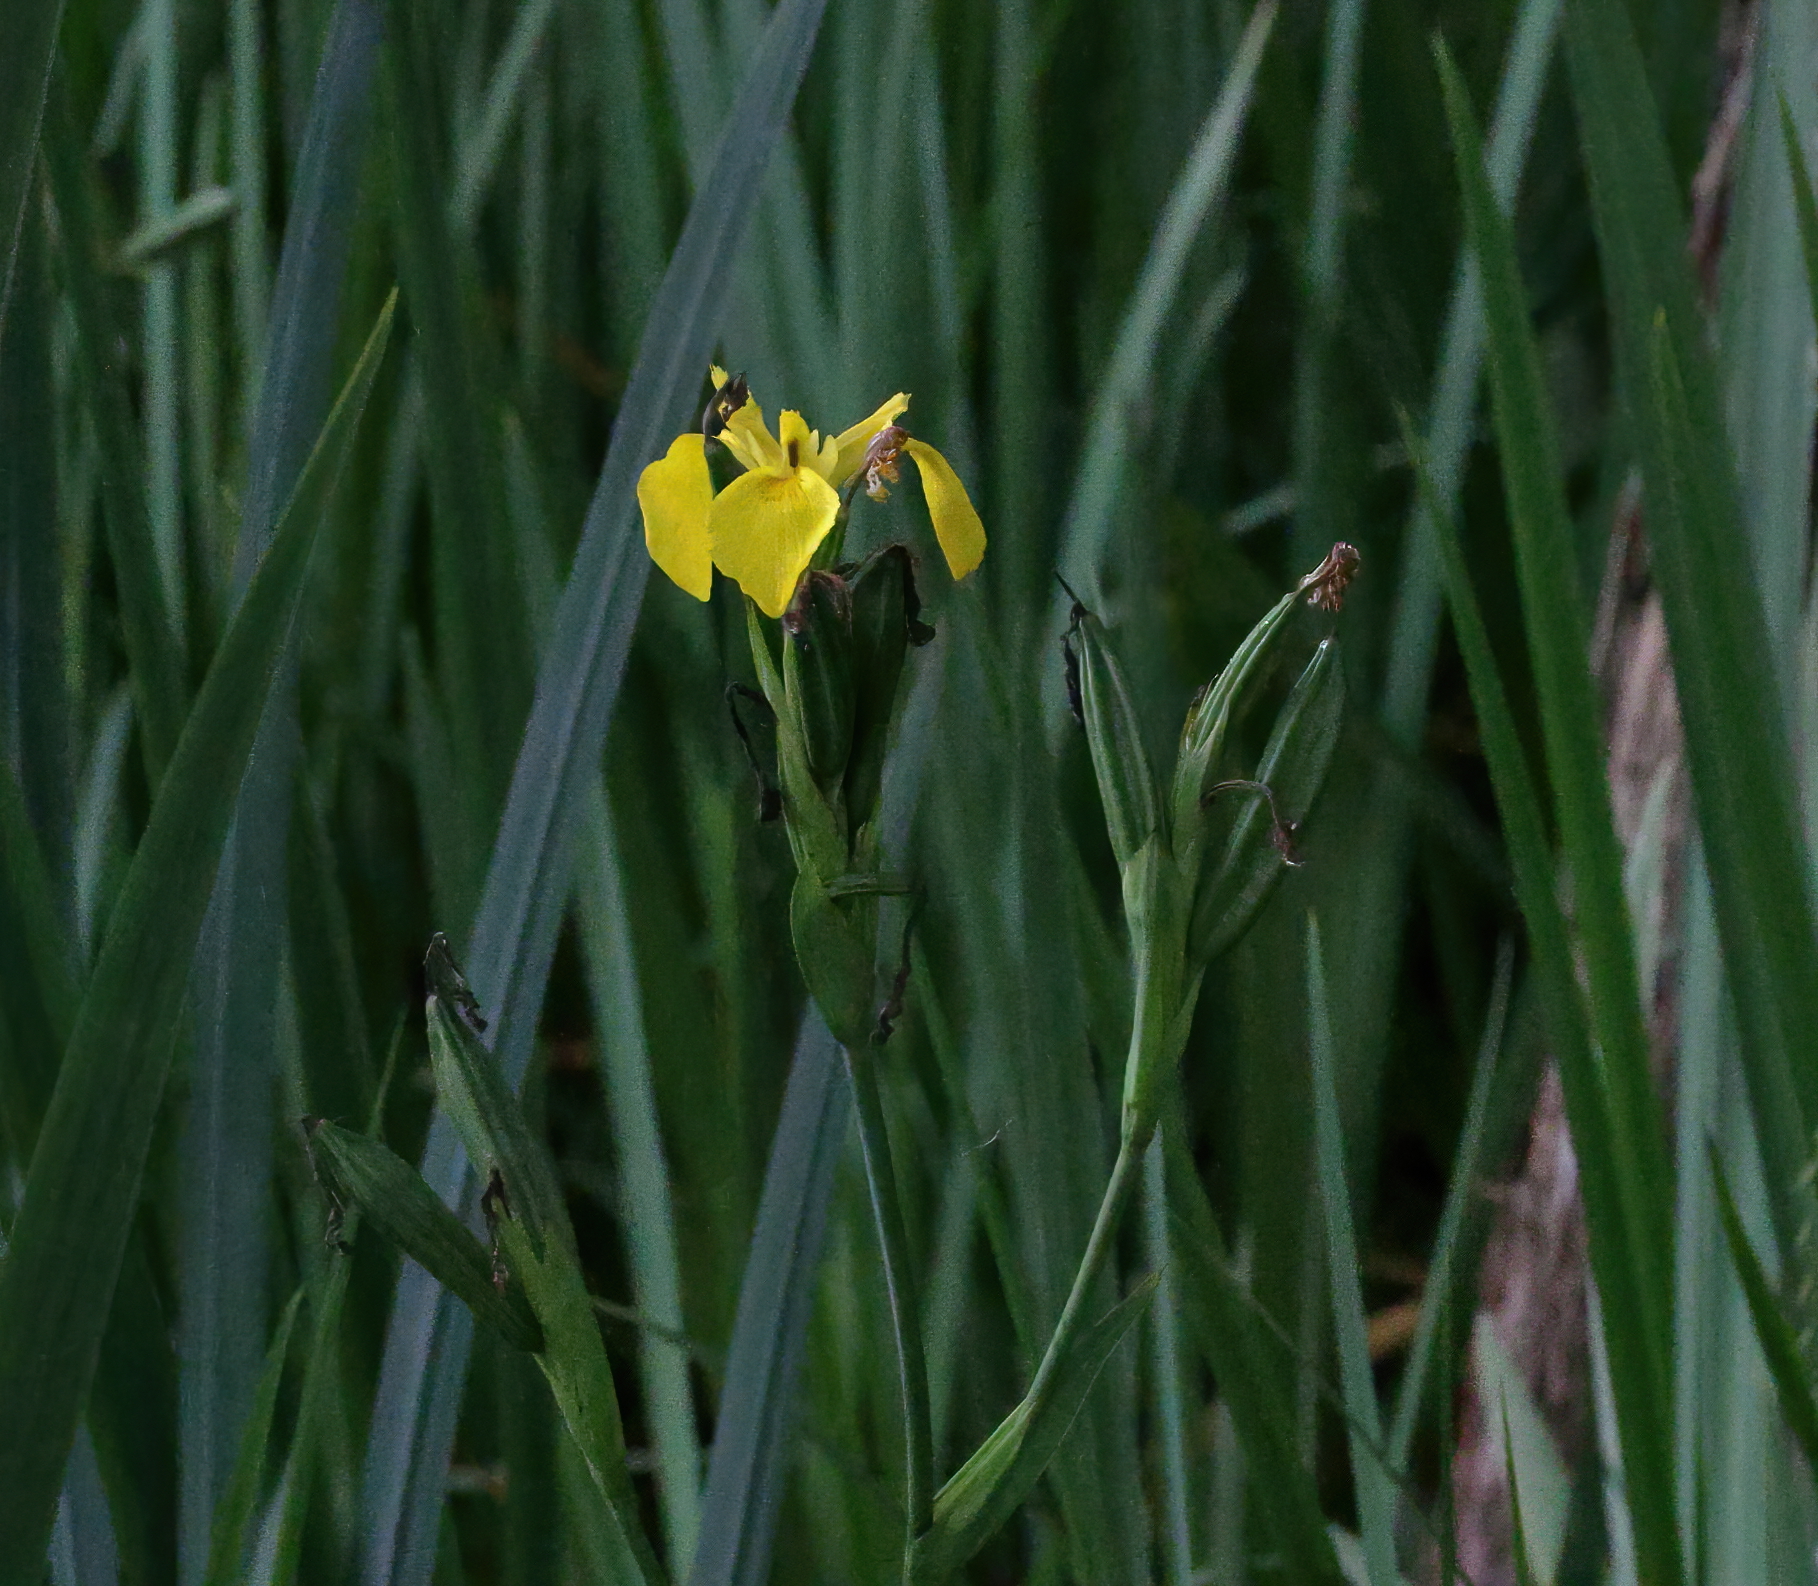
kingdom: Plantae
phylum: Tracheophyta
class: Liliopsida
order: Asparagales
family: Iridaceae
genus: Iris
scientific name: Iris pseudacorus
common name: Yellow flag
